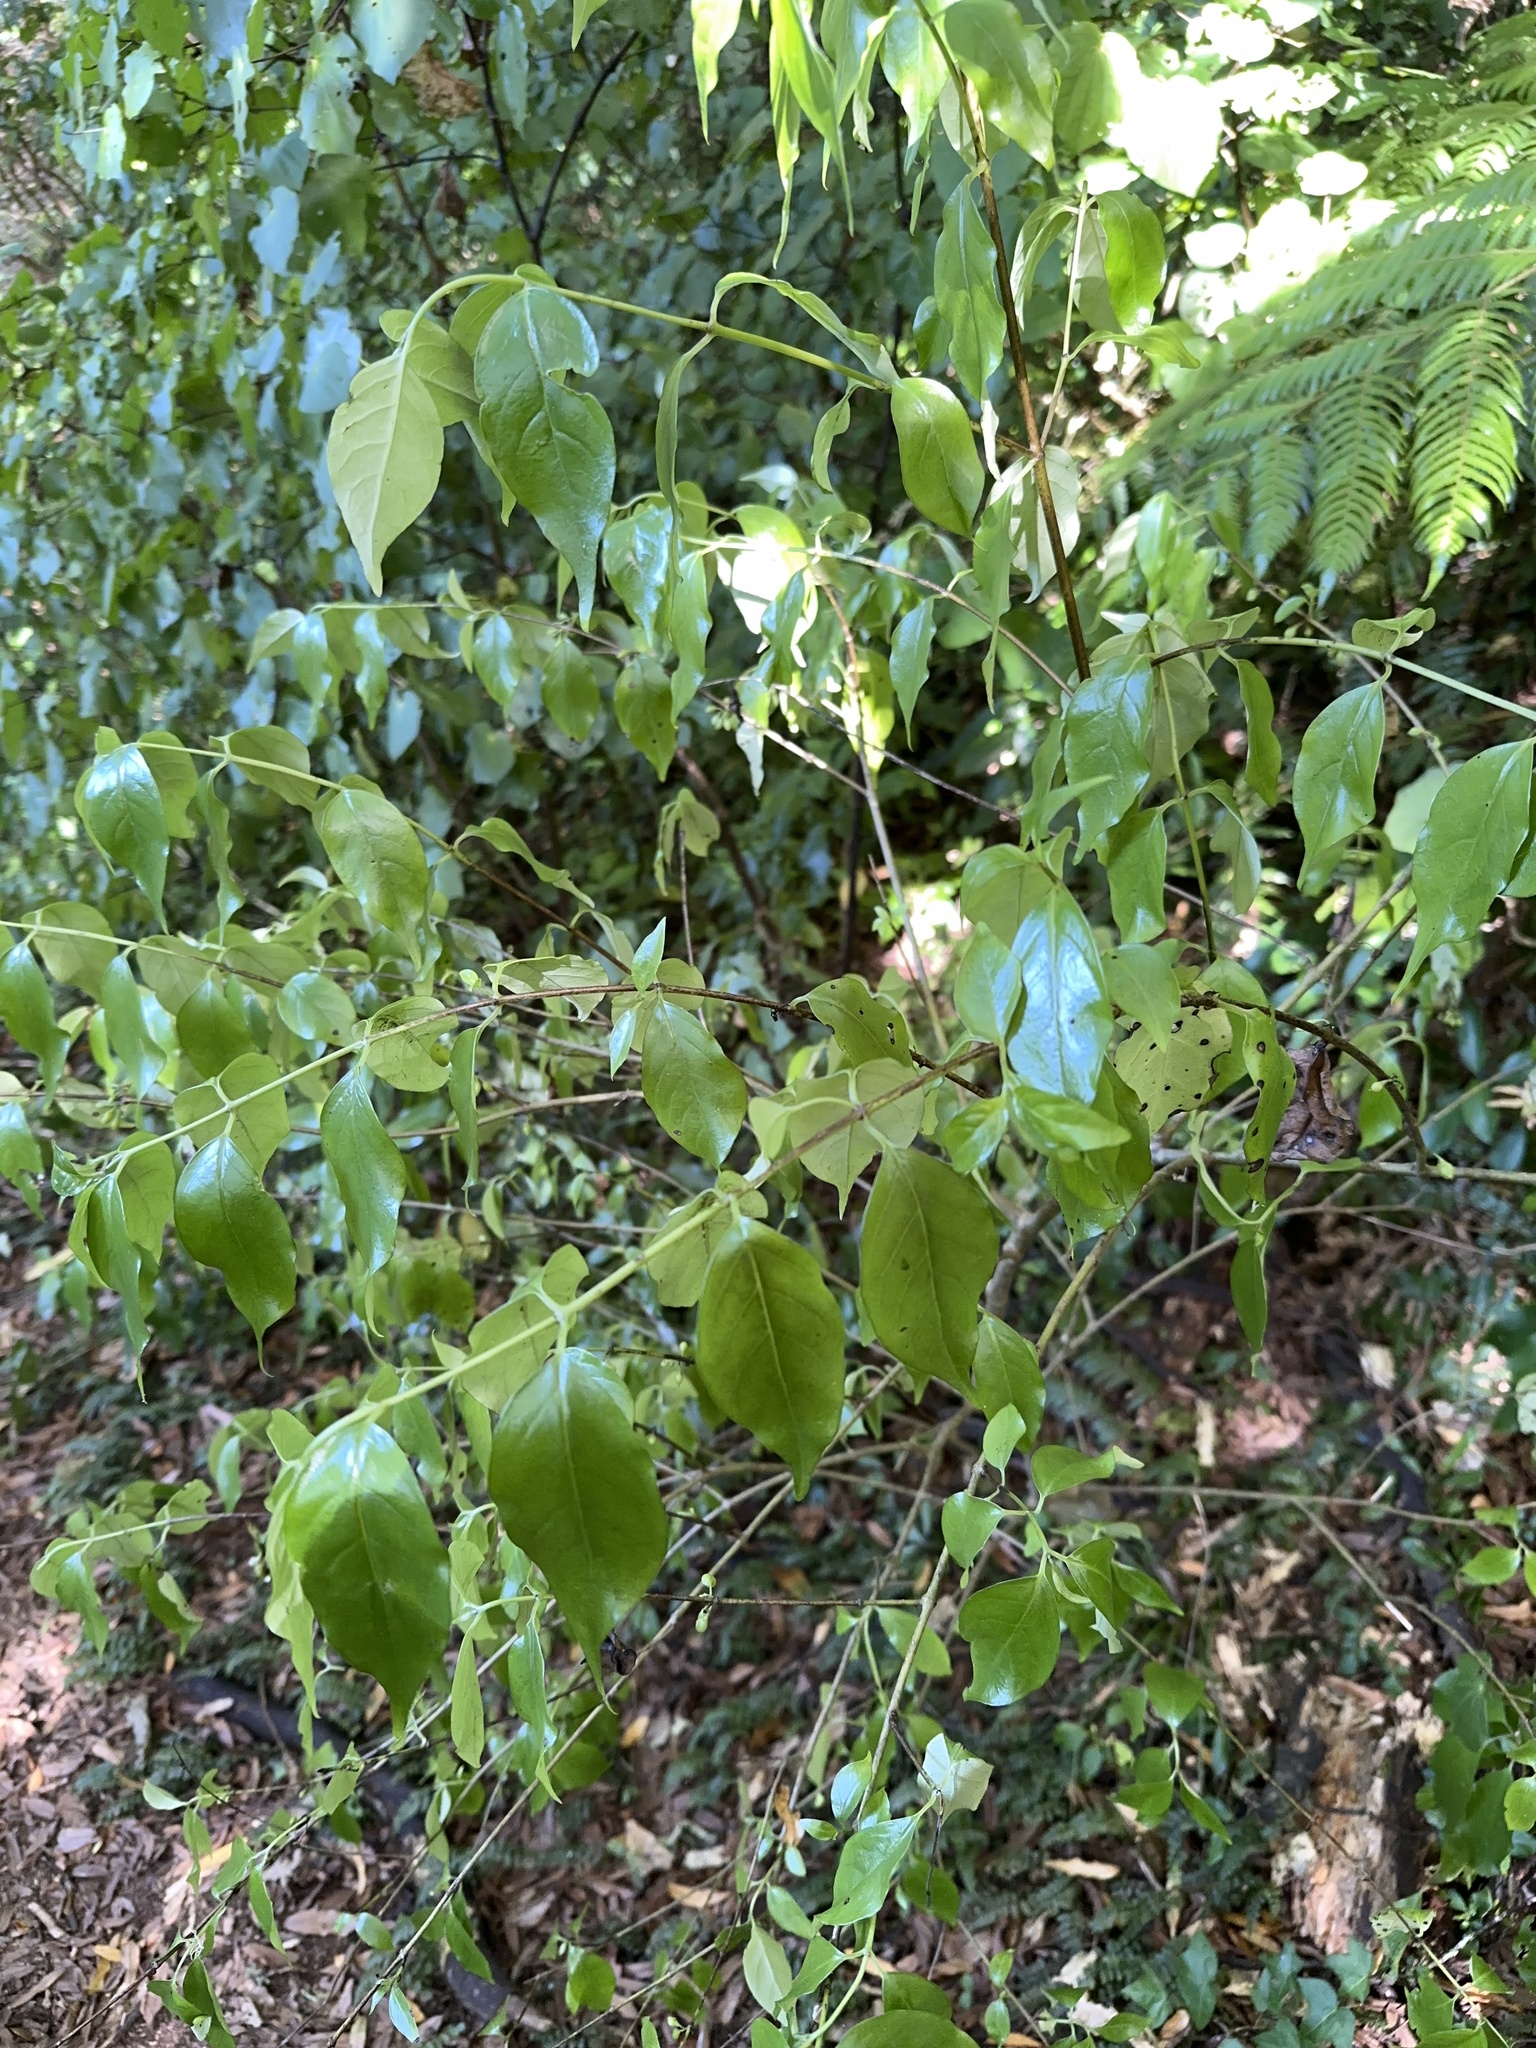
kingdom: Plantae
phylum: Tracheophyta
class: Magnoliopsida
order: Gentianales
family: Loganiaceae
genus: Geniostoma
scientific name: Geniostoma ligustrifolium
